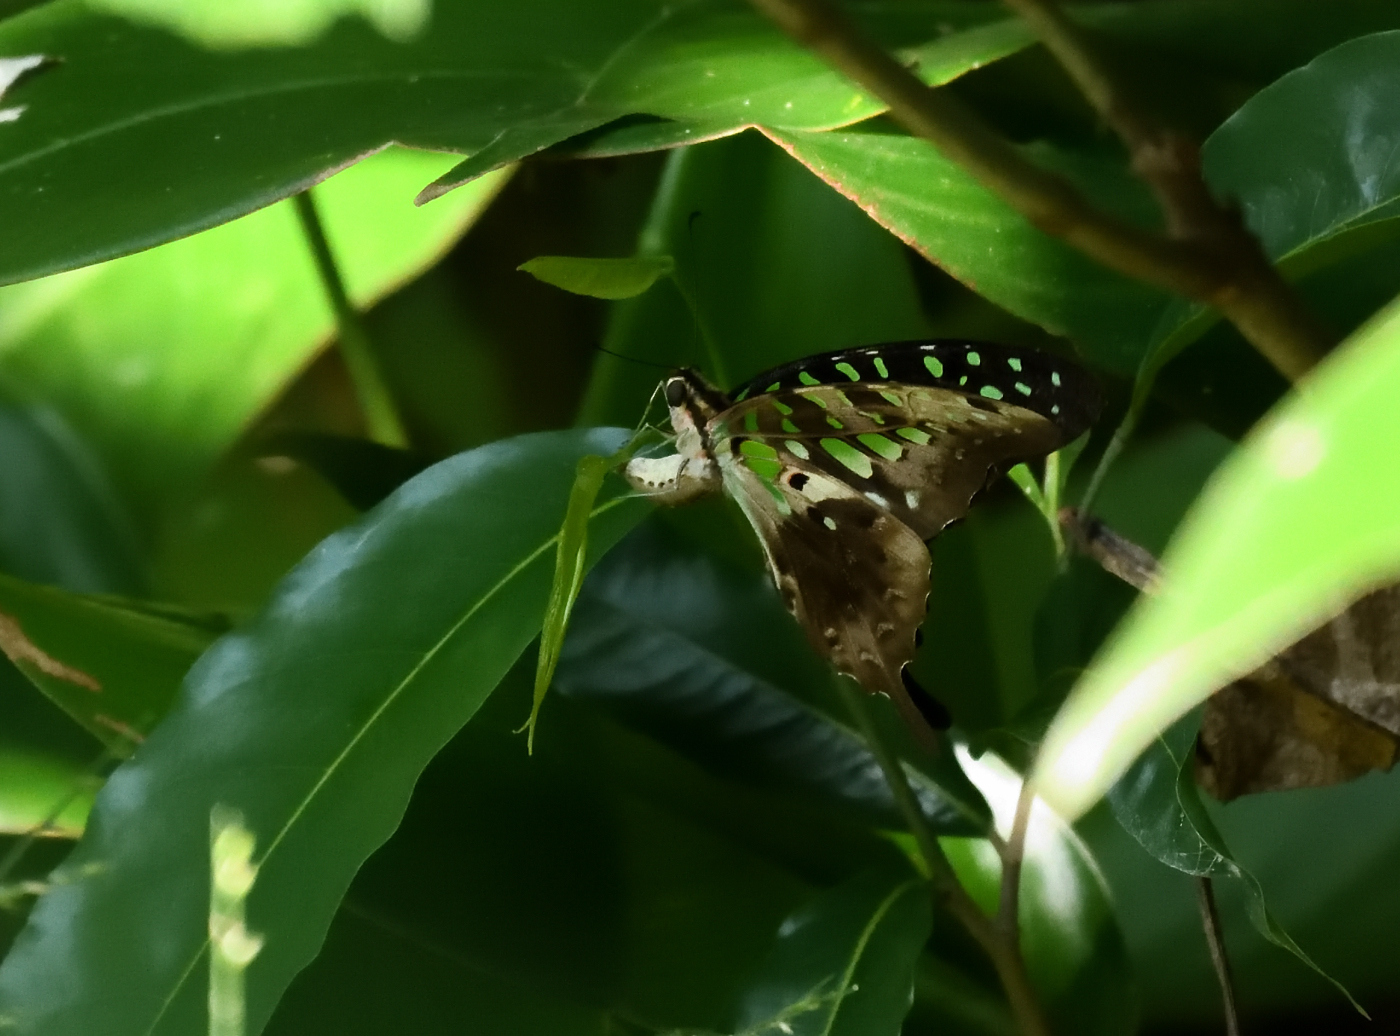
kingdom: Animalia
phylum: Arthropoda
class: Insecta
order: Lepidoptera
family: Papilionidae
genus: Graphium
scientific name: Graphium agamemnon
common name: Tailed jay
